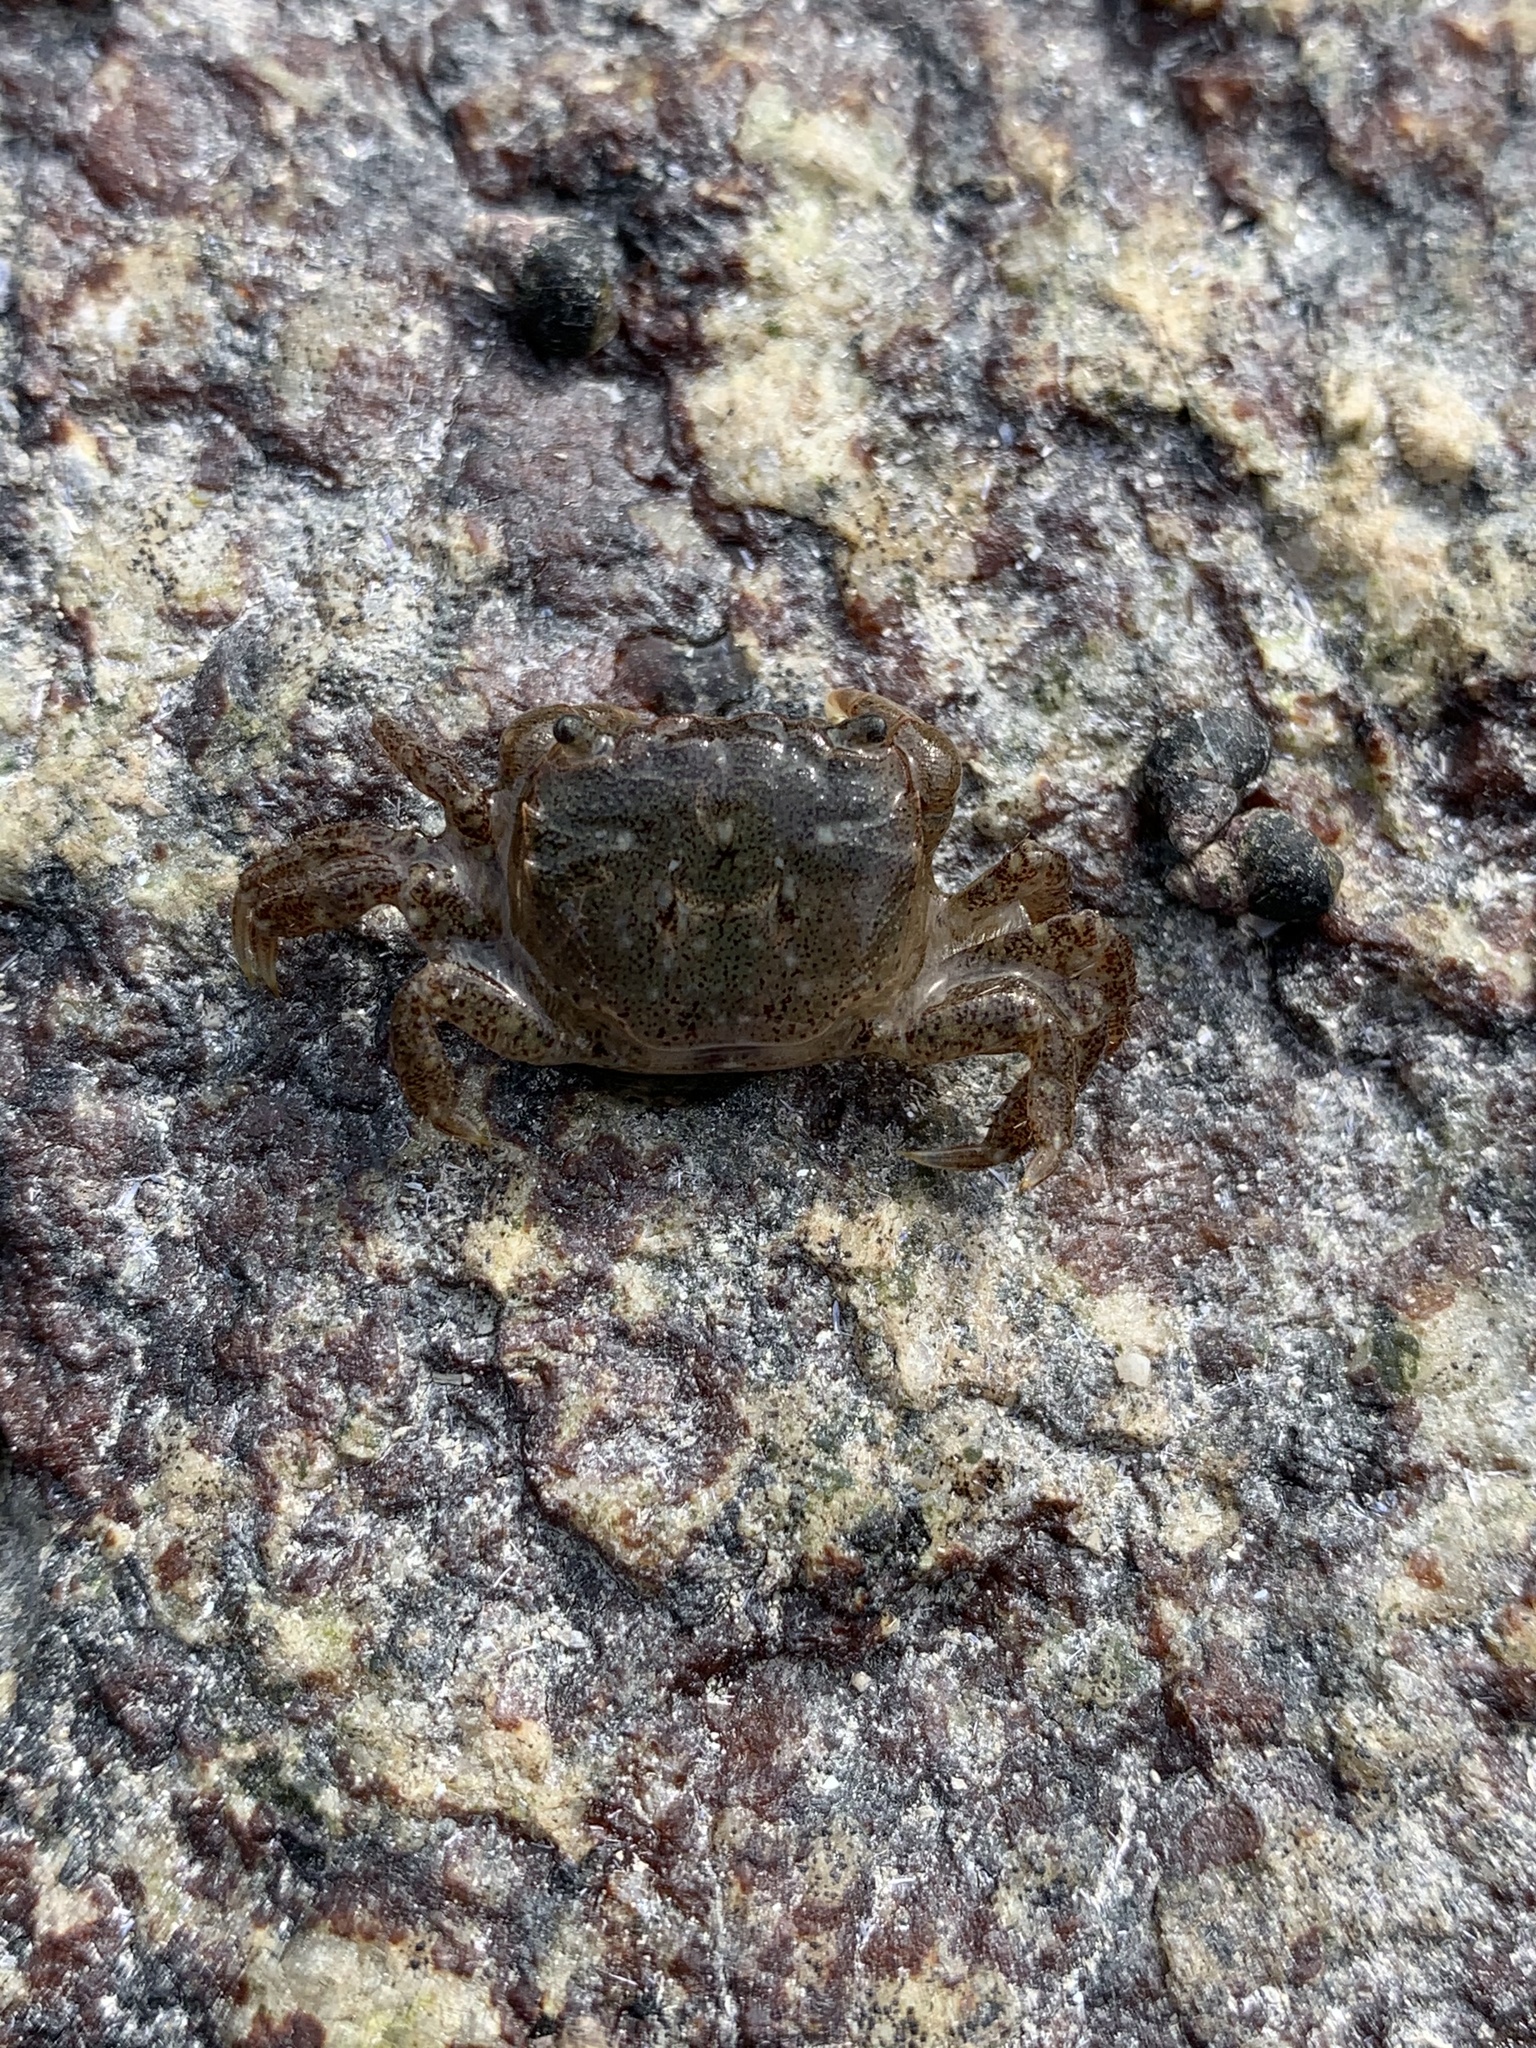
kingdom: Animalia
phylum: Arthropoda
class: Malacostraca
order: Decapoda
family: Varunidae
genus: Hemigrapsus
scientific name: Hemigrapsus oregonensis
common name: Yellow shore crab
